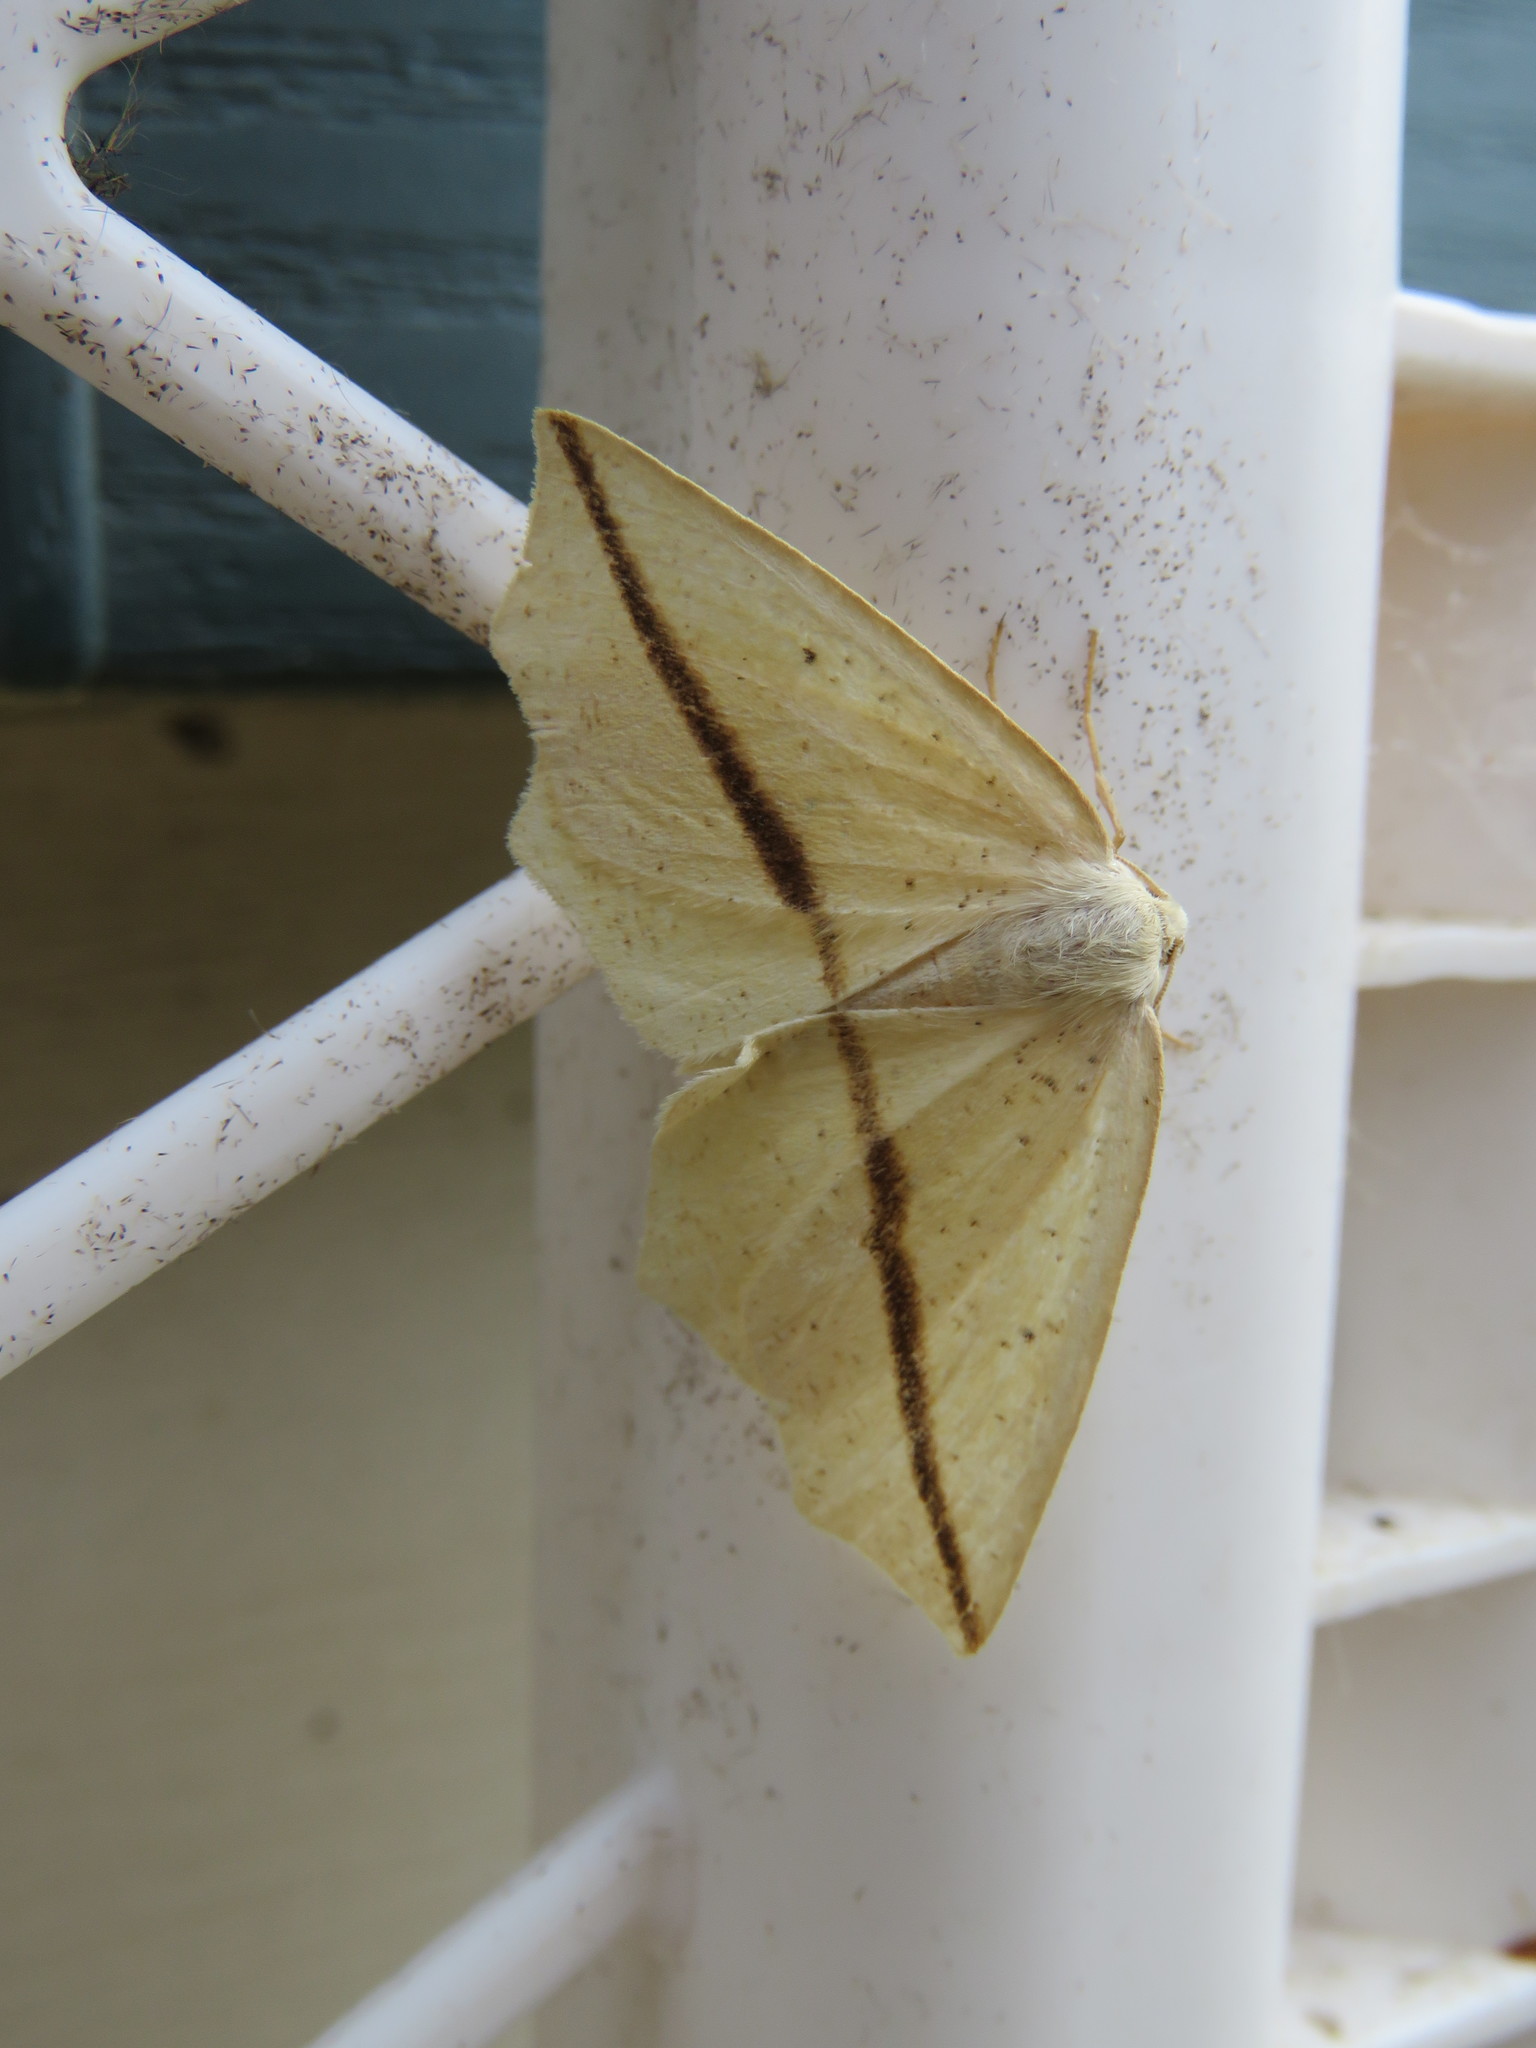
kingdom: Animalia
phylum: Arthropoda
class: Insecta
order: Lepidoptera
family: Geometridae
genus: Tetracis
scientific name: Tetracis crocallata
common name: Yellow slant-line
